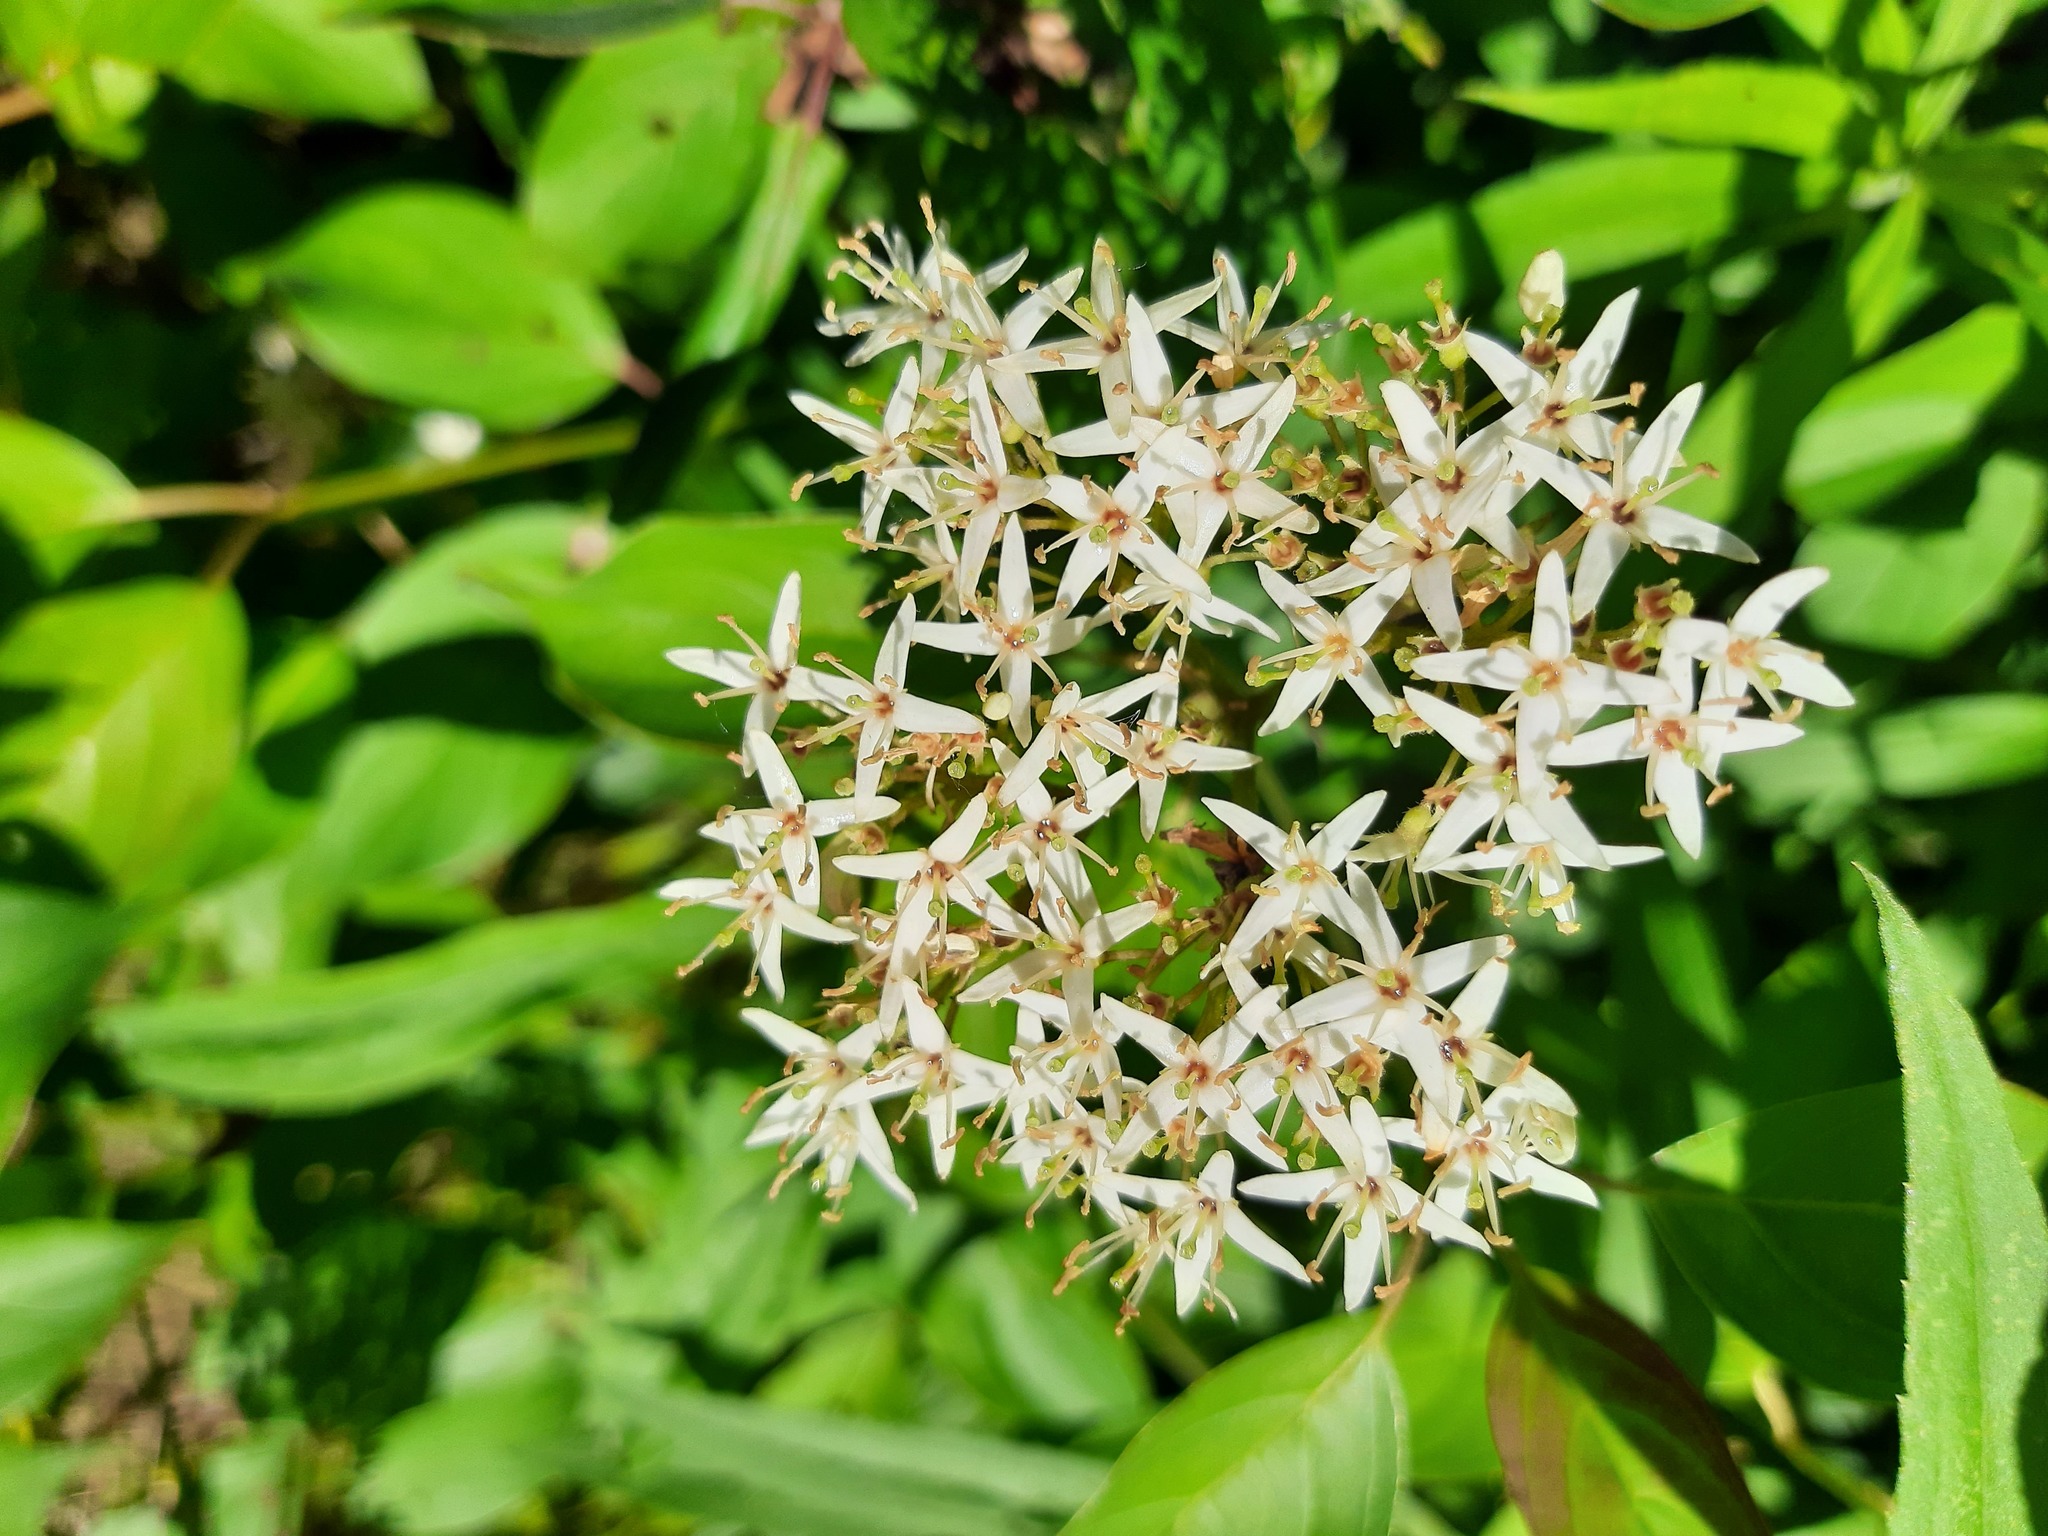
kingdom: Plantae
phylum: Tracheophyta
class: Magnoliopsida
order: Cornales
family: Cornaceae
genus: Cornus
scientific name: Cornus amomum
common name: Silky dogwood
